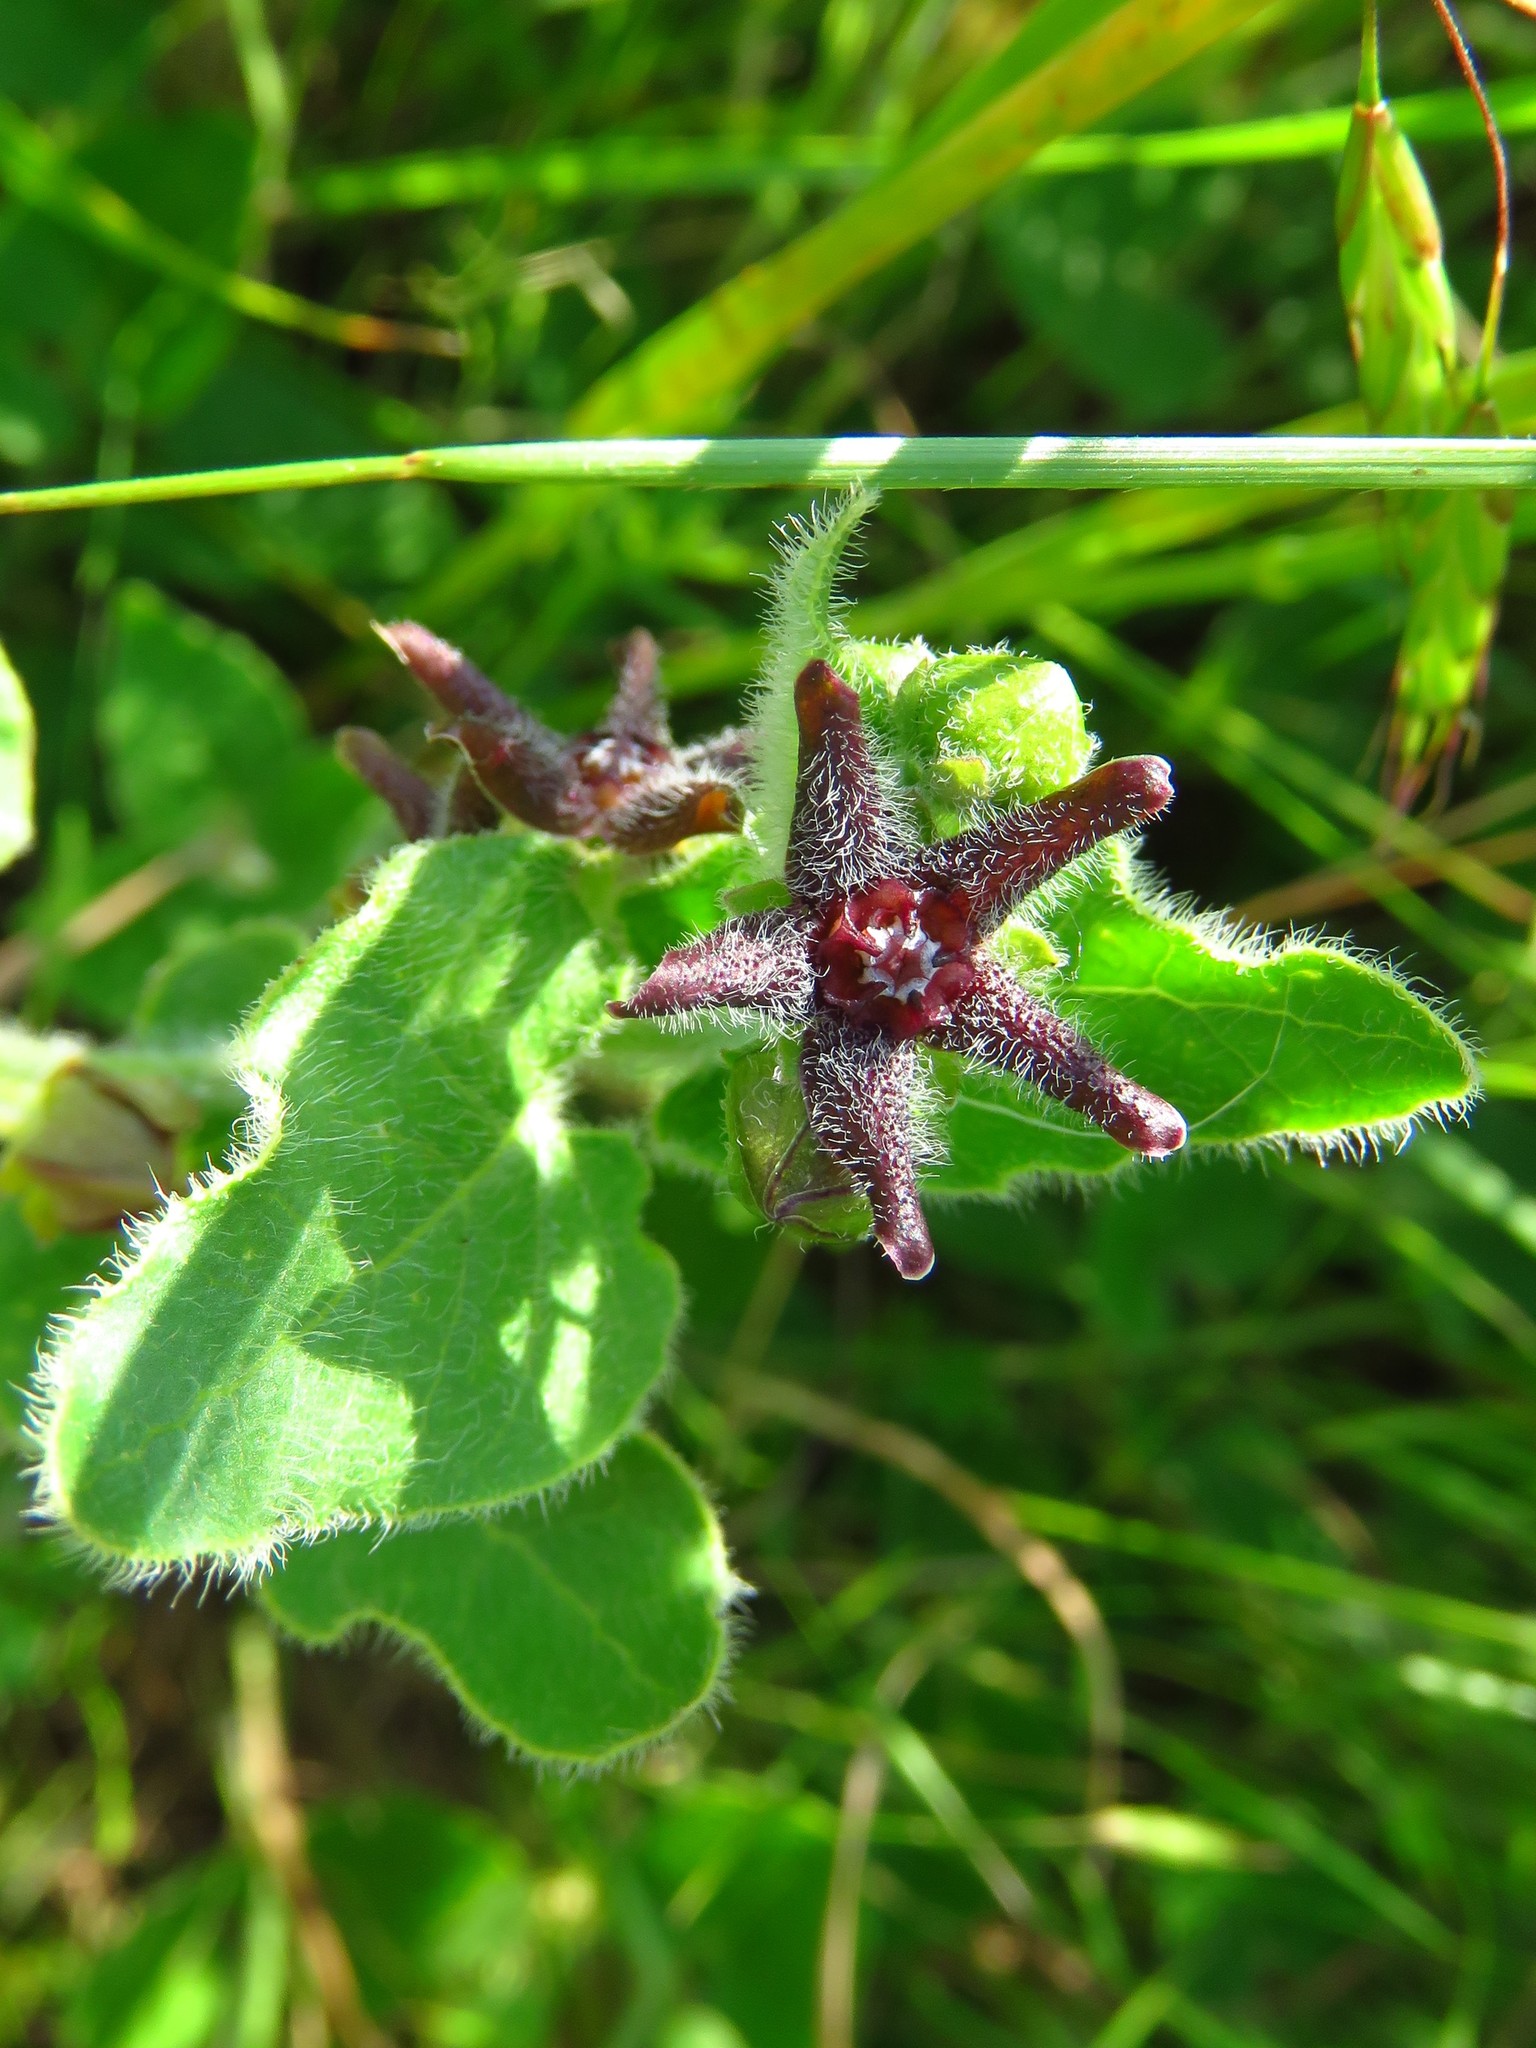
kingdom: Plantae
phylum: Tracheophyta
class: Magnoliopsida
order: Gentianales
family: Apocynaceae
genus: Chthamalia
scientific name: Chthamalia biflora
